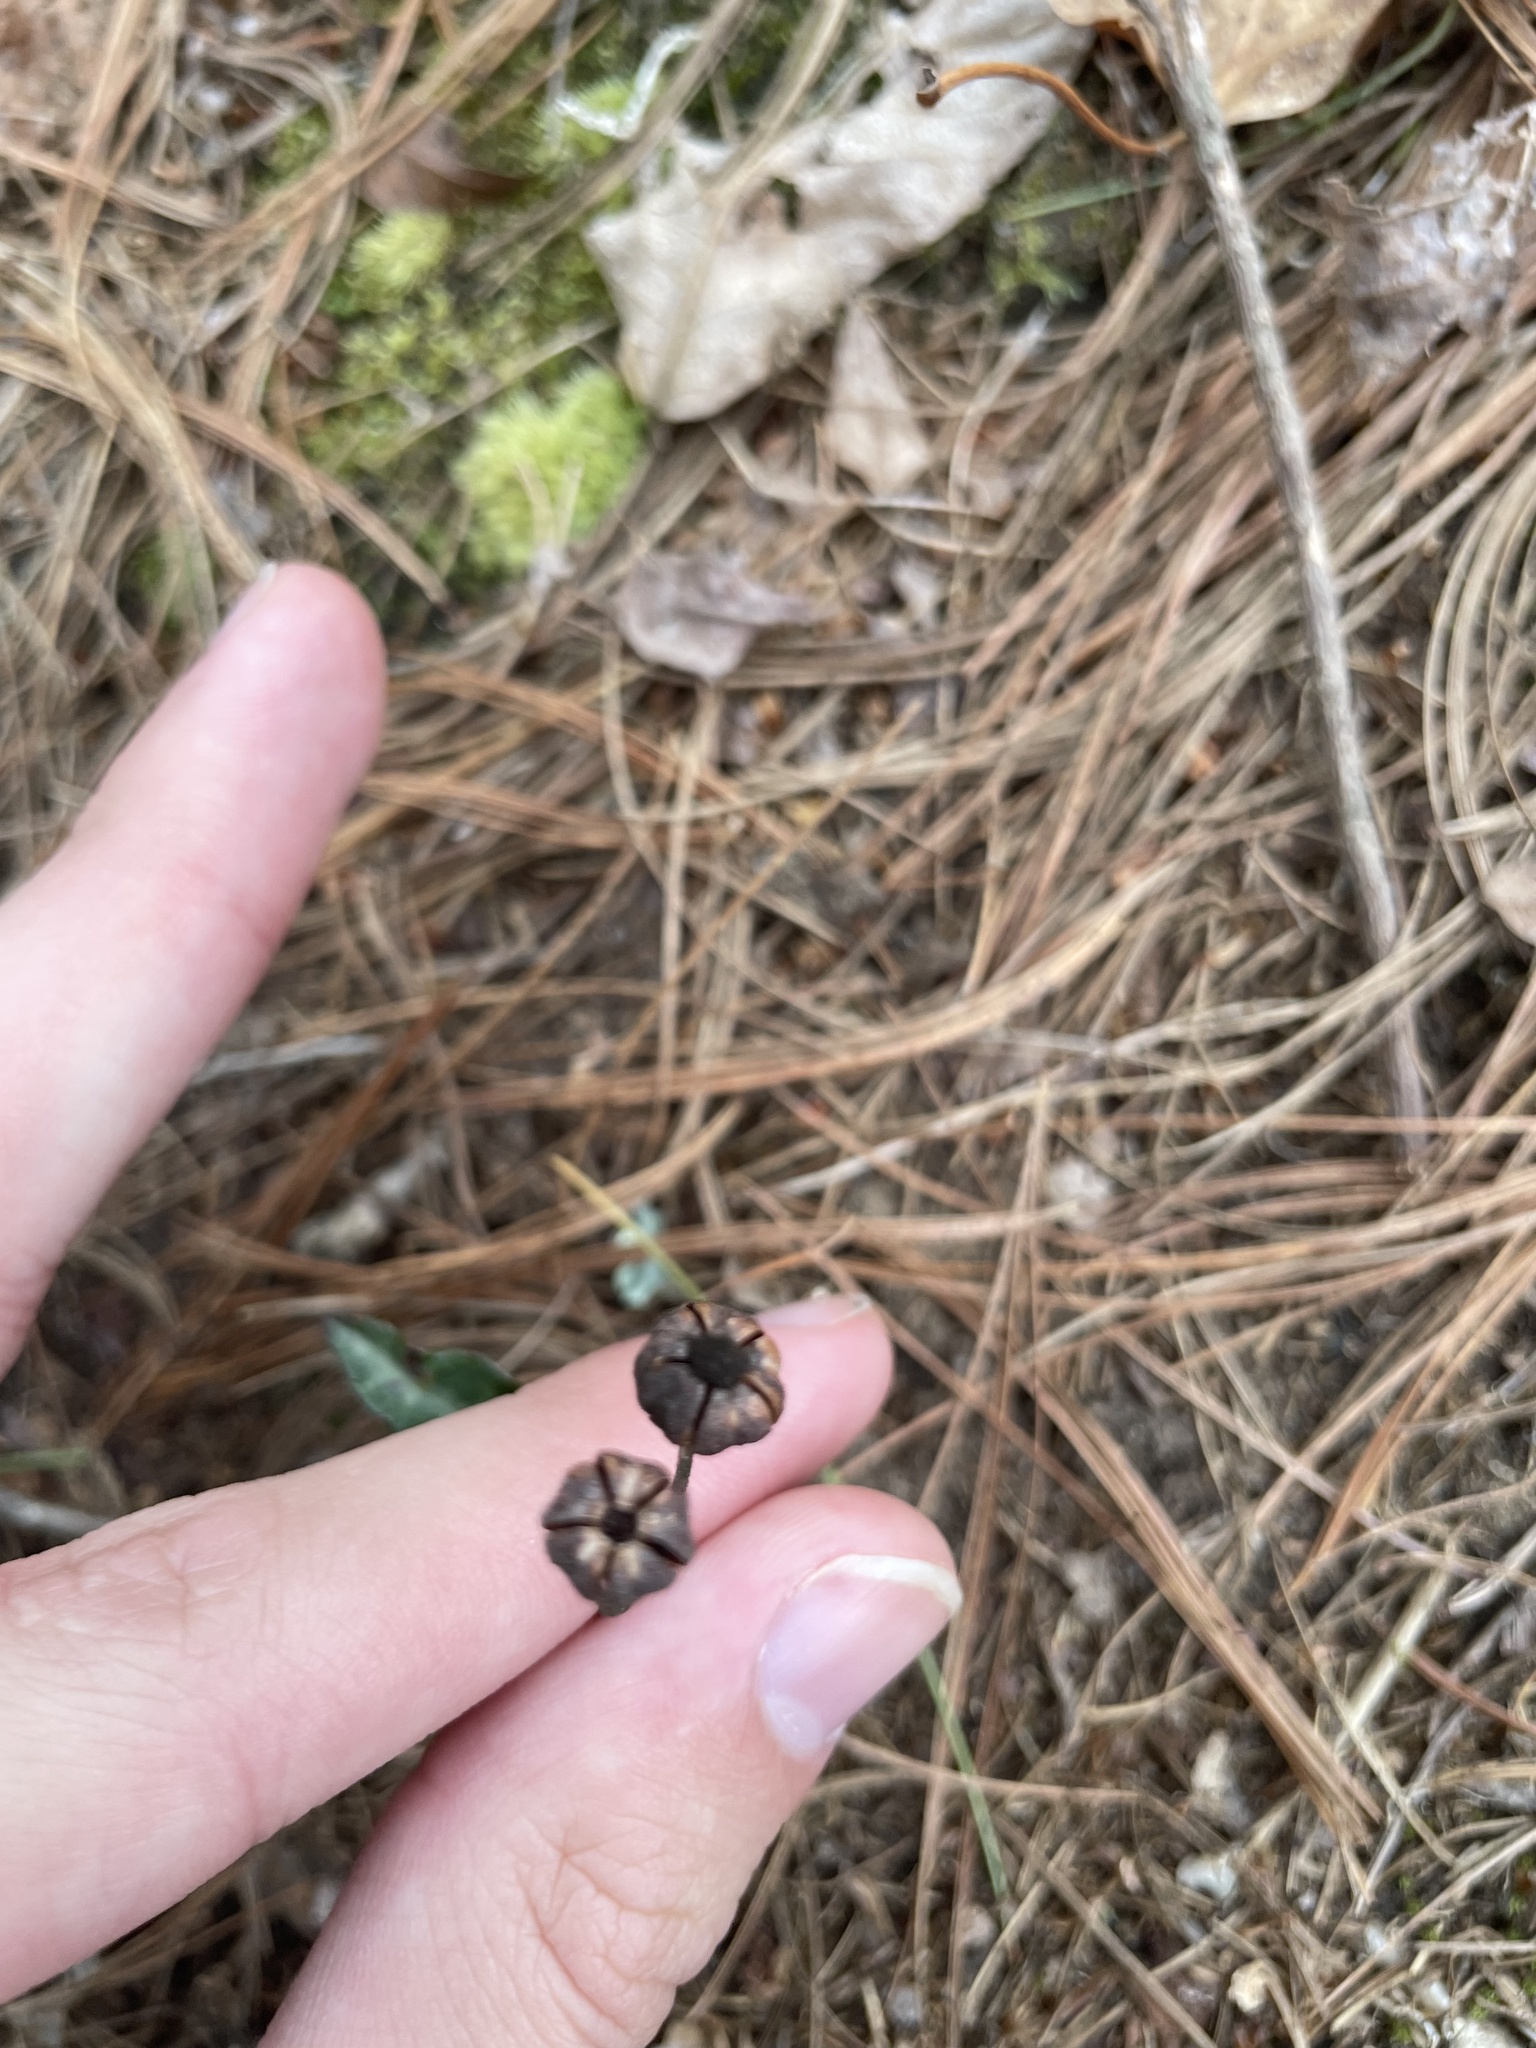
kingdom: Plantae
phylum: Tracheophyta
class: Magnoliopsida
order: Ericales
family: Ericaceae
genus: Chimaphila
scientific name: Chimaphila maculata
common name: Spotted pipsissewa
